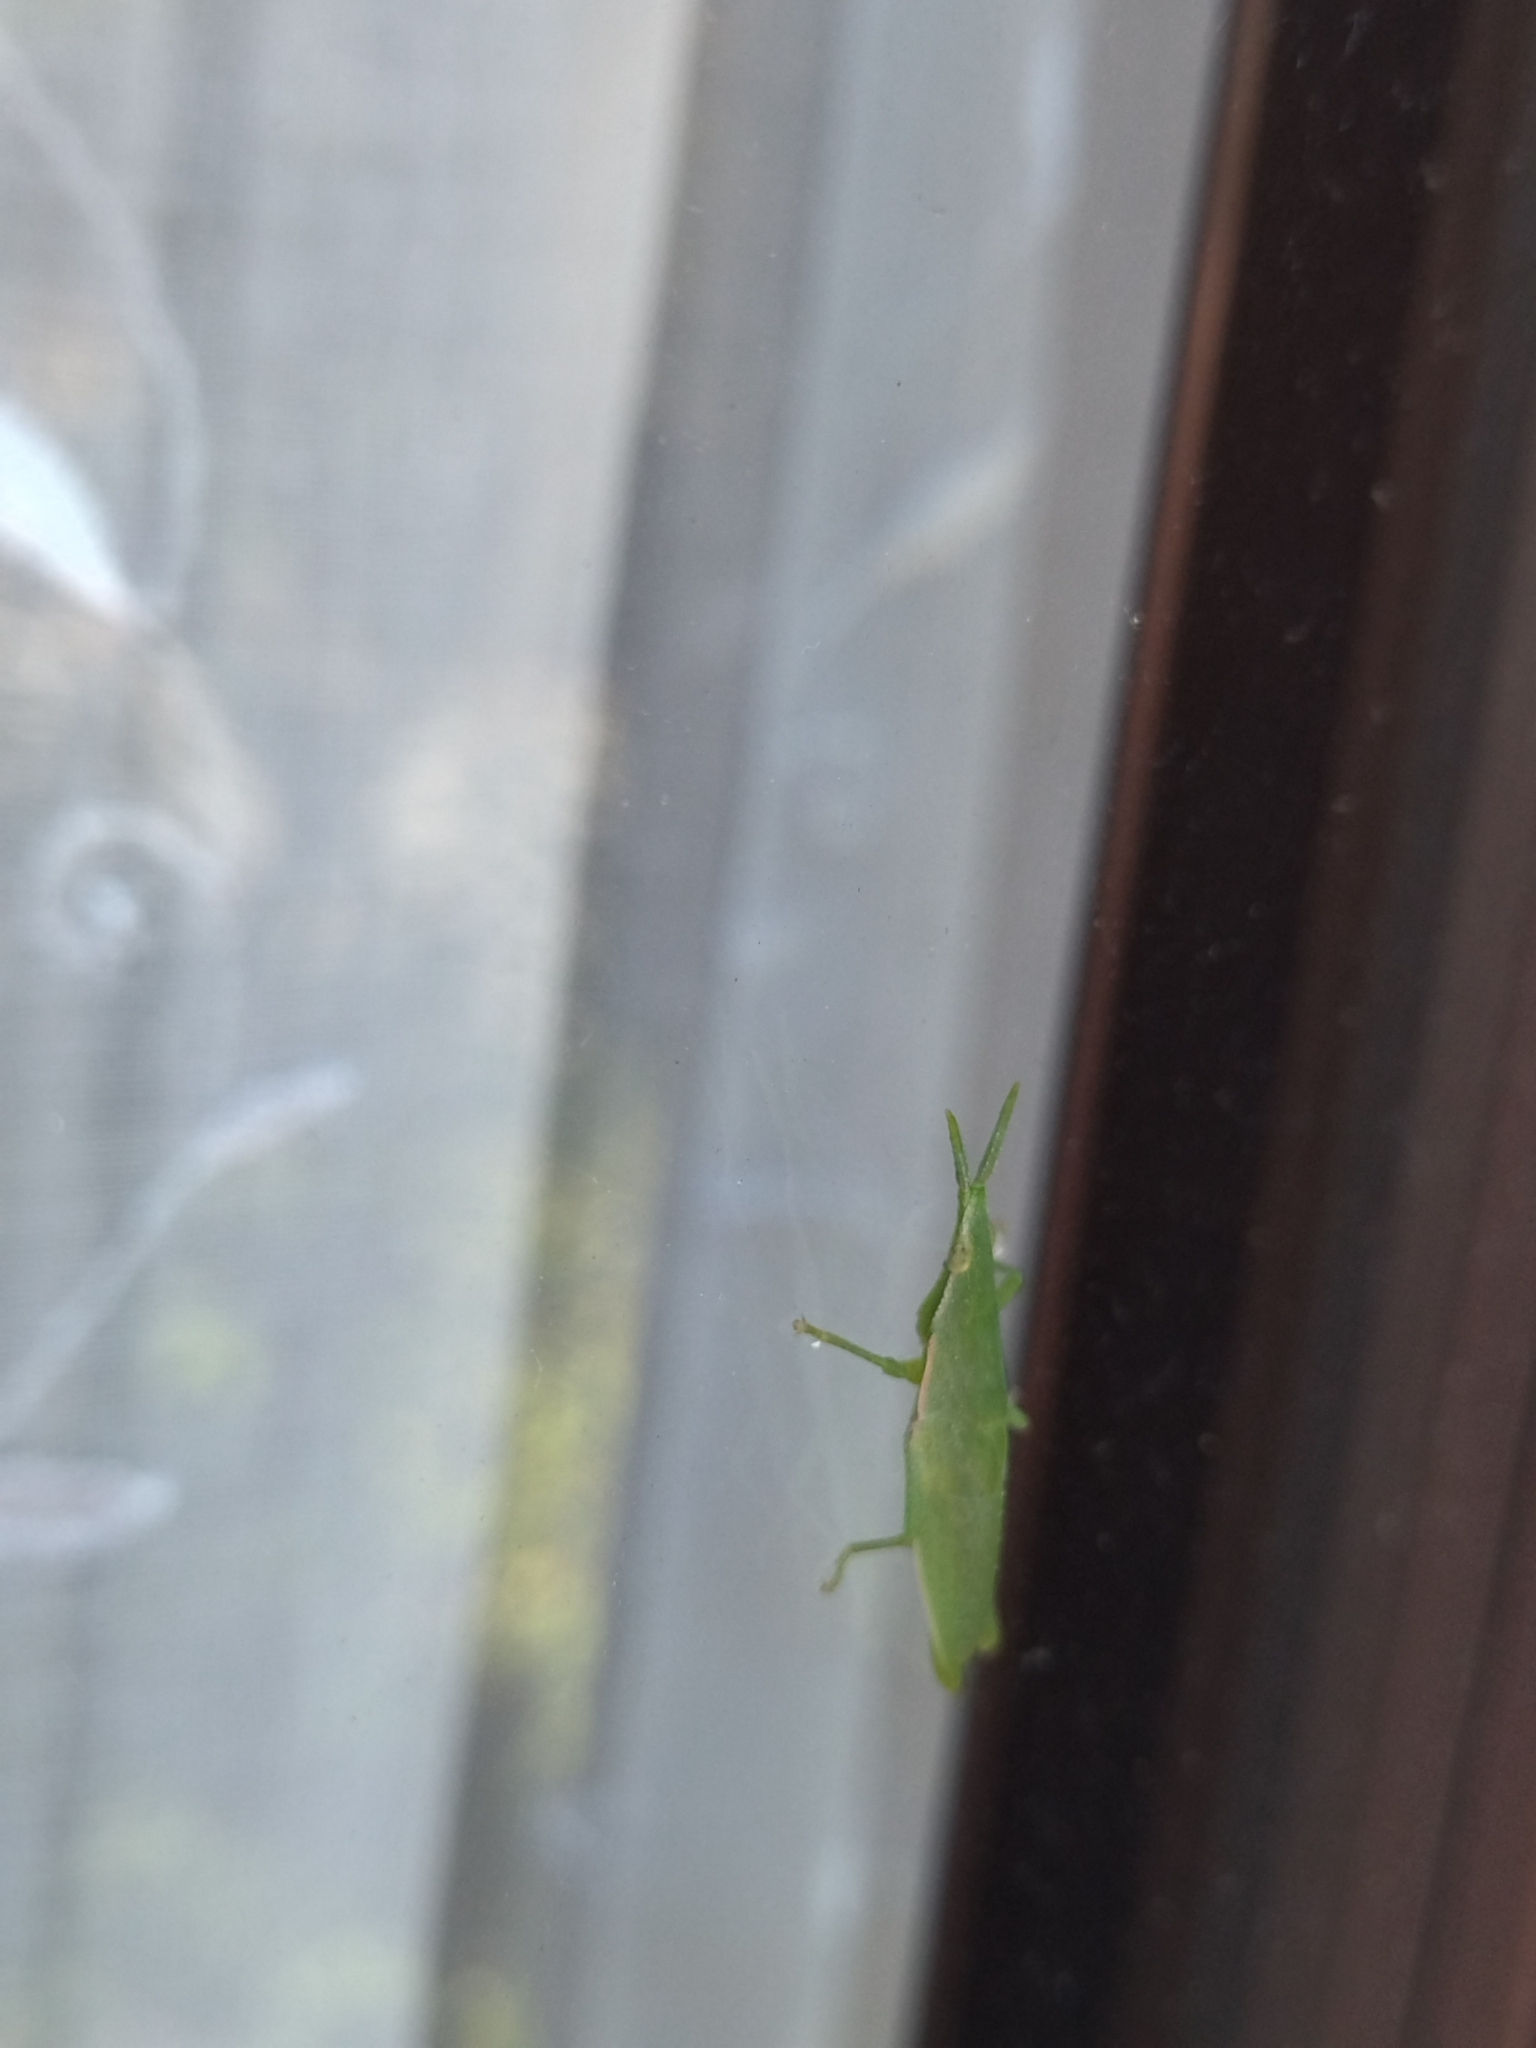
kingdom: Animalia
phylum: Arthropoda
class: Insecta
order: Orthoptera
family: Pyrgomorphidae
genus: Atractomorpha
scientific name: Atractomorpha lata
